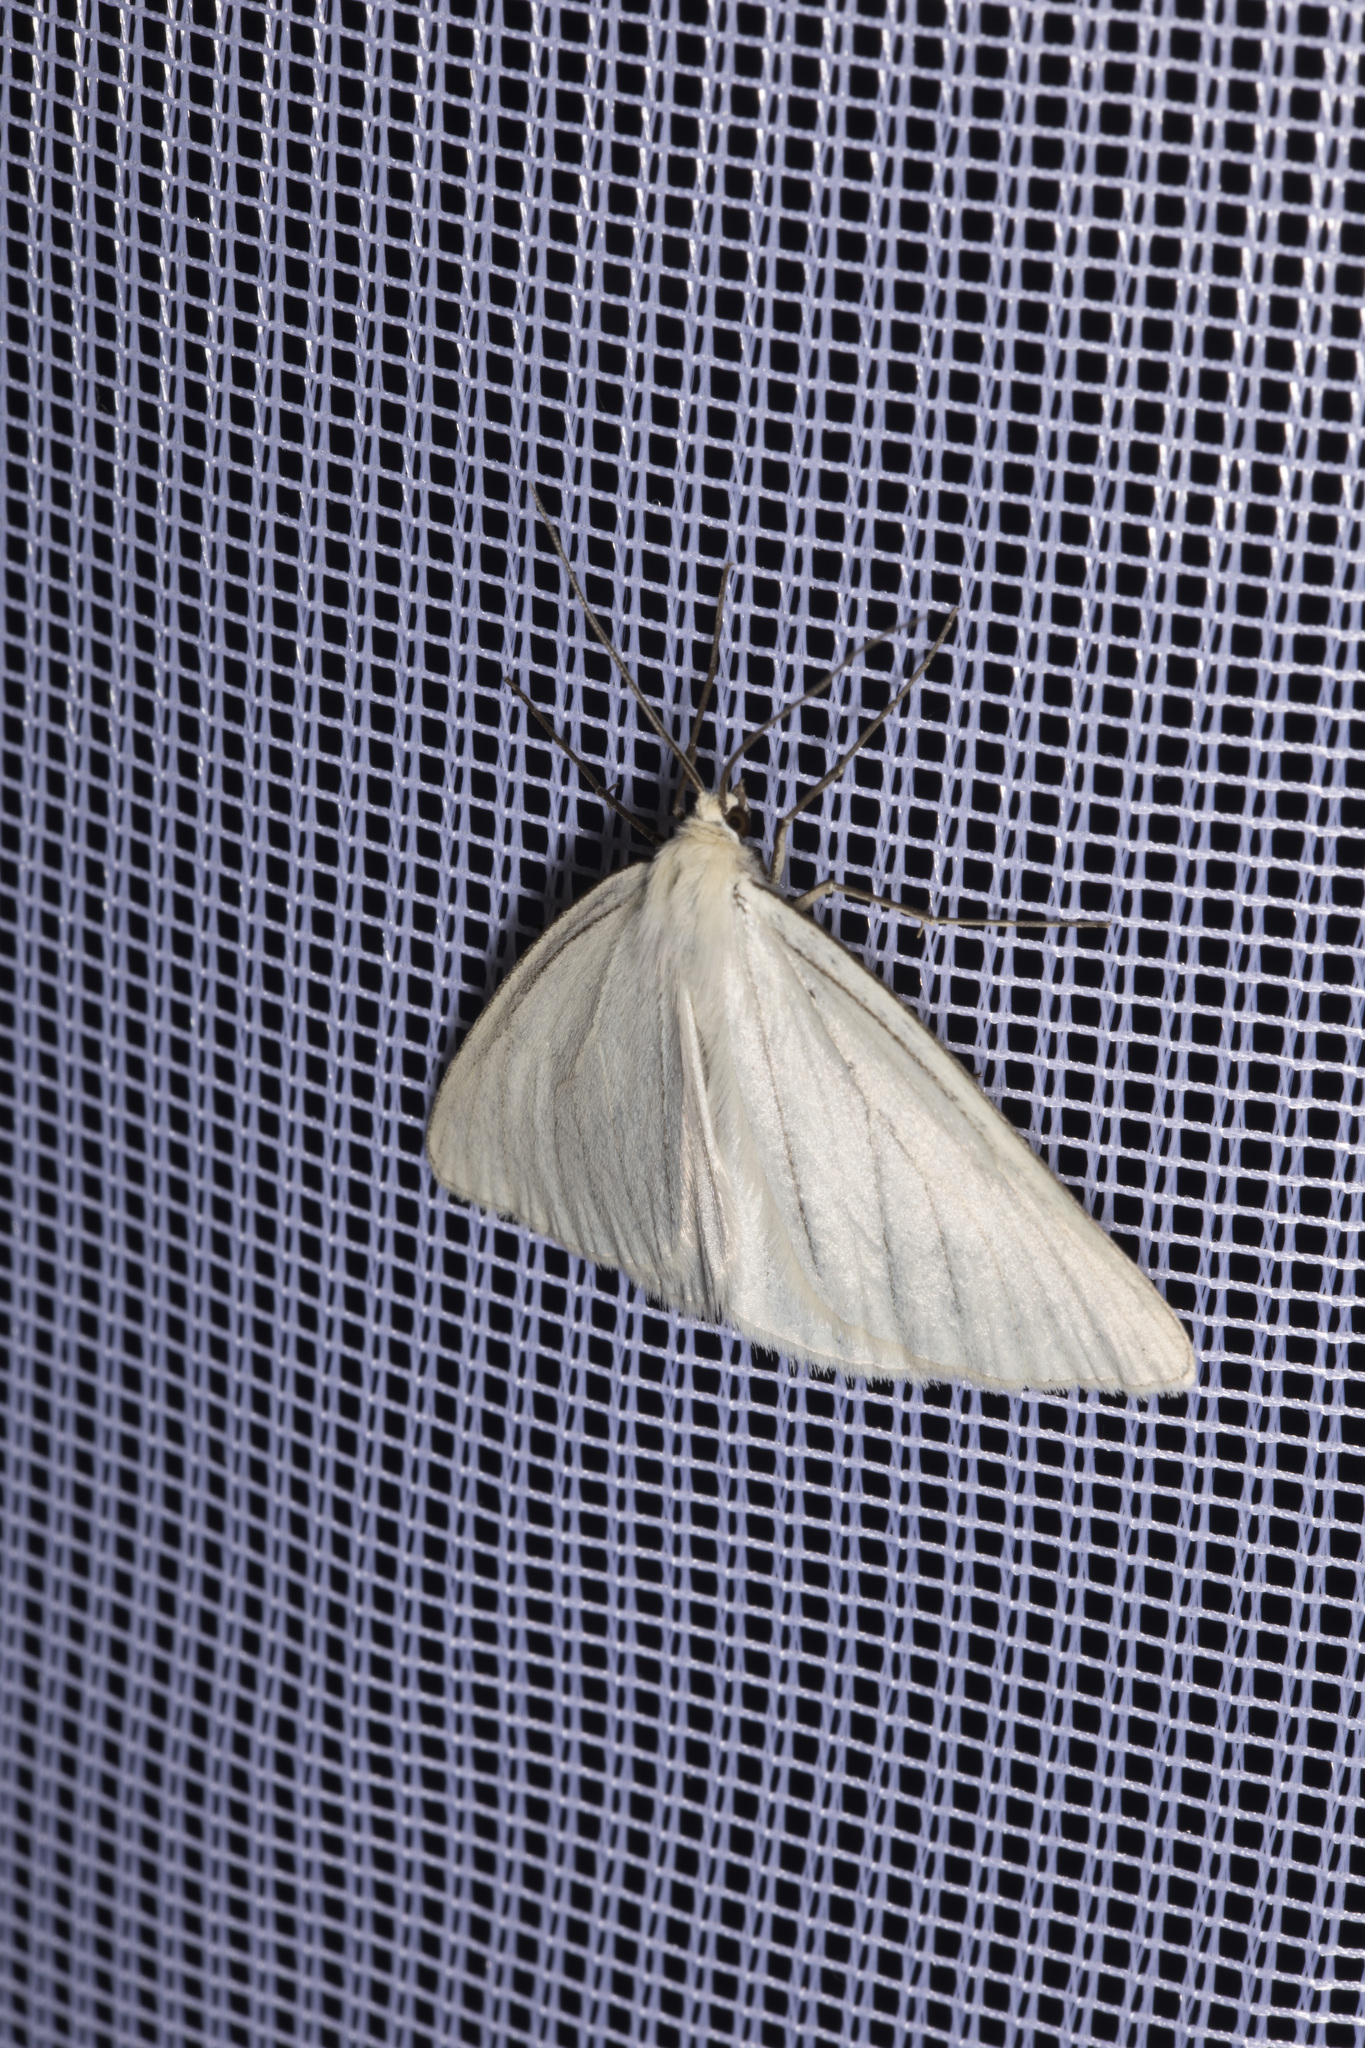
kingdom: Animalia
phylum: Arthropoda
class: Insecta
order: Lepidoptera
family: Geometridae
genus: Siona
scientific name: Siona lineata
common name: Black-veined moth
